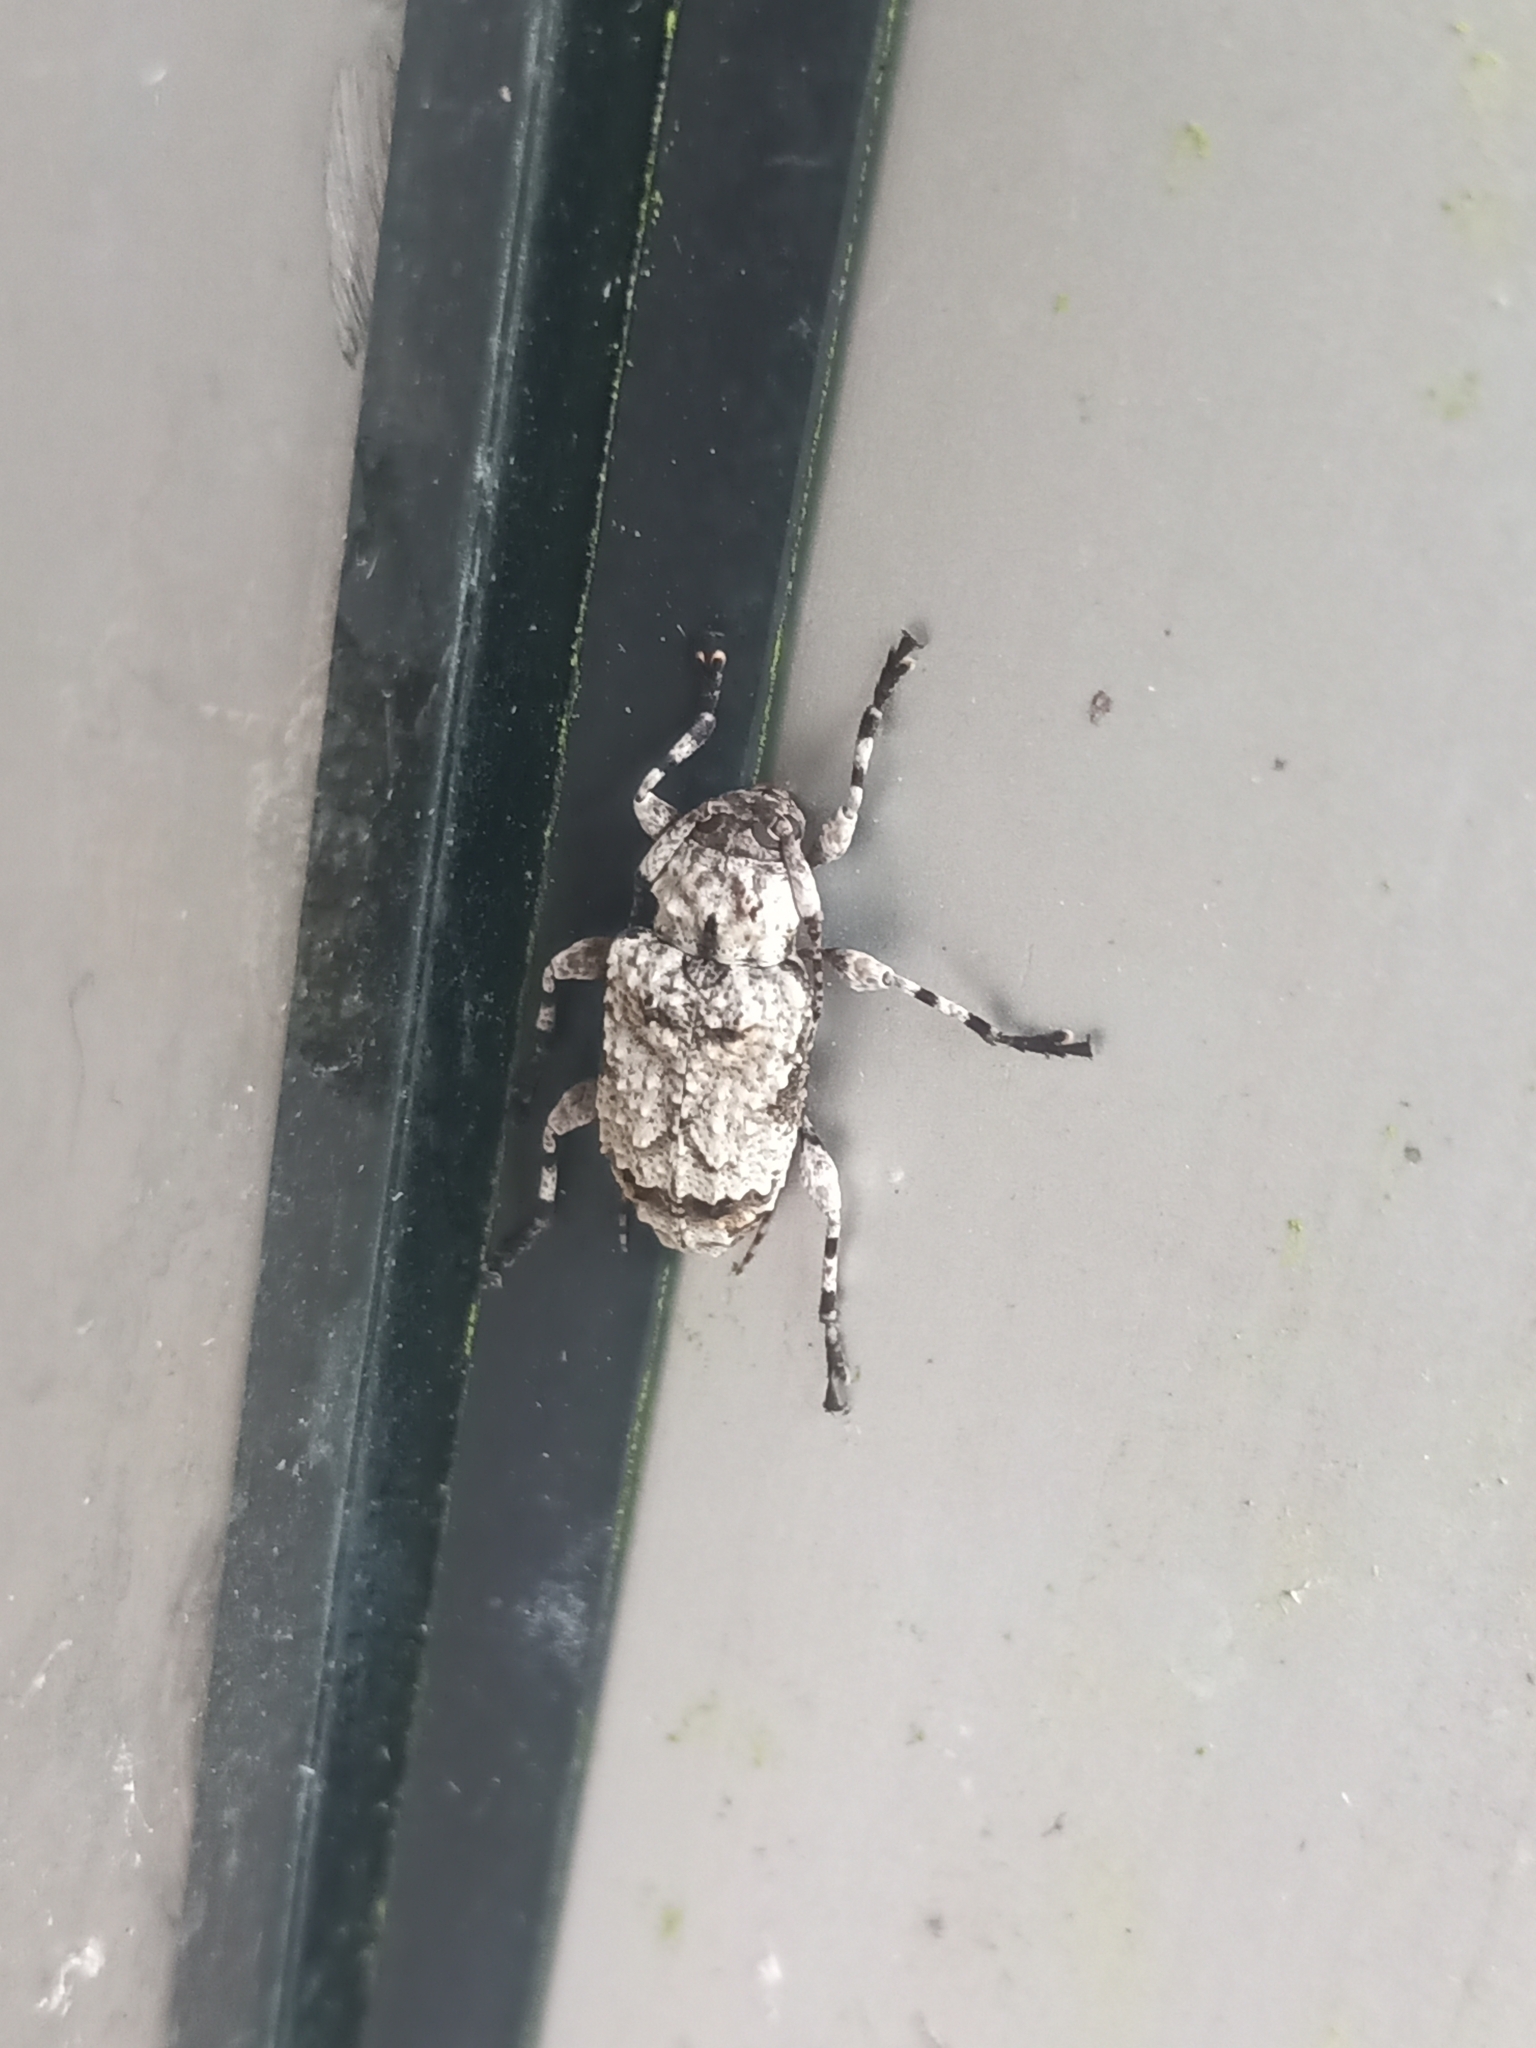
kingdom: Animalia
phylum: Arthropoda
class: Insecta
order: Coleoptera
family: Cerambycidae
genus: Leptostylus
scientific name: Leptostylus asperatus
